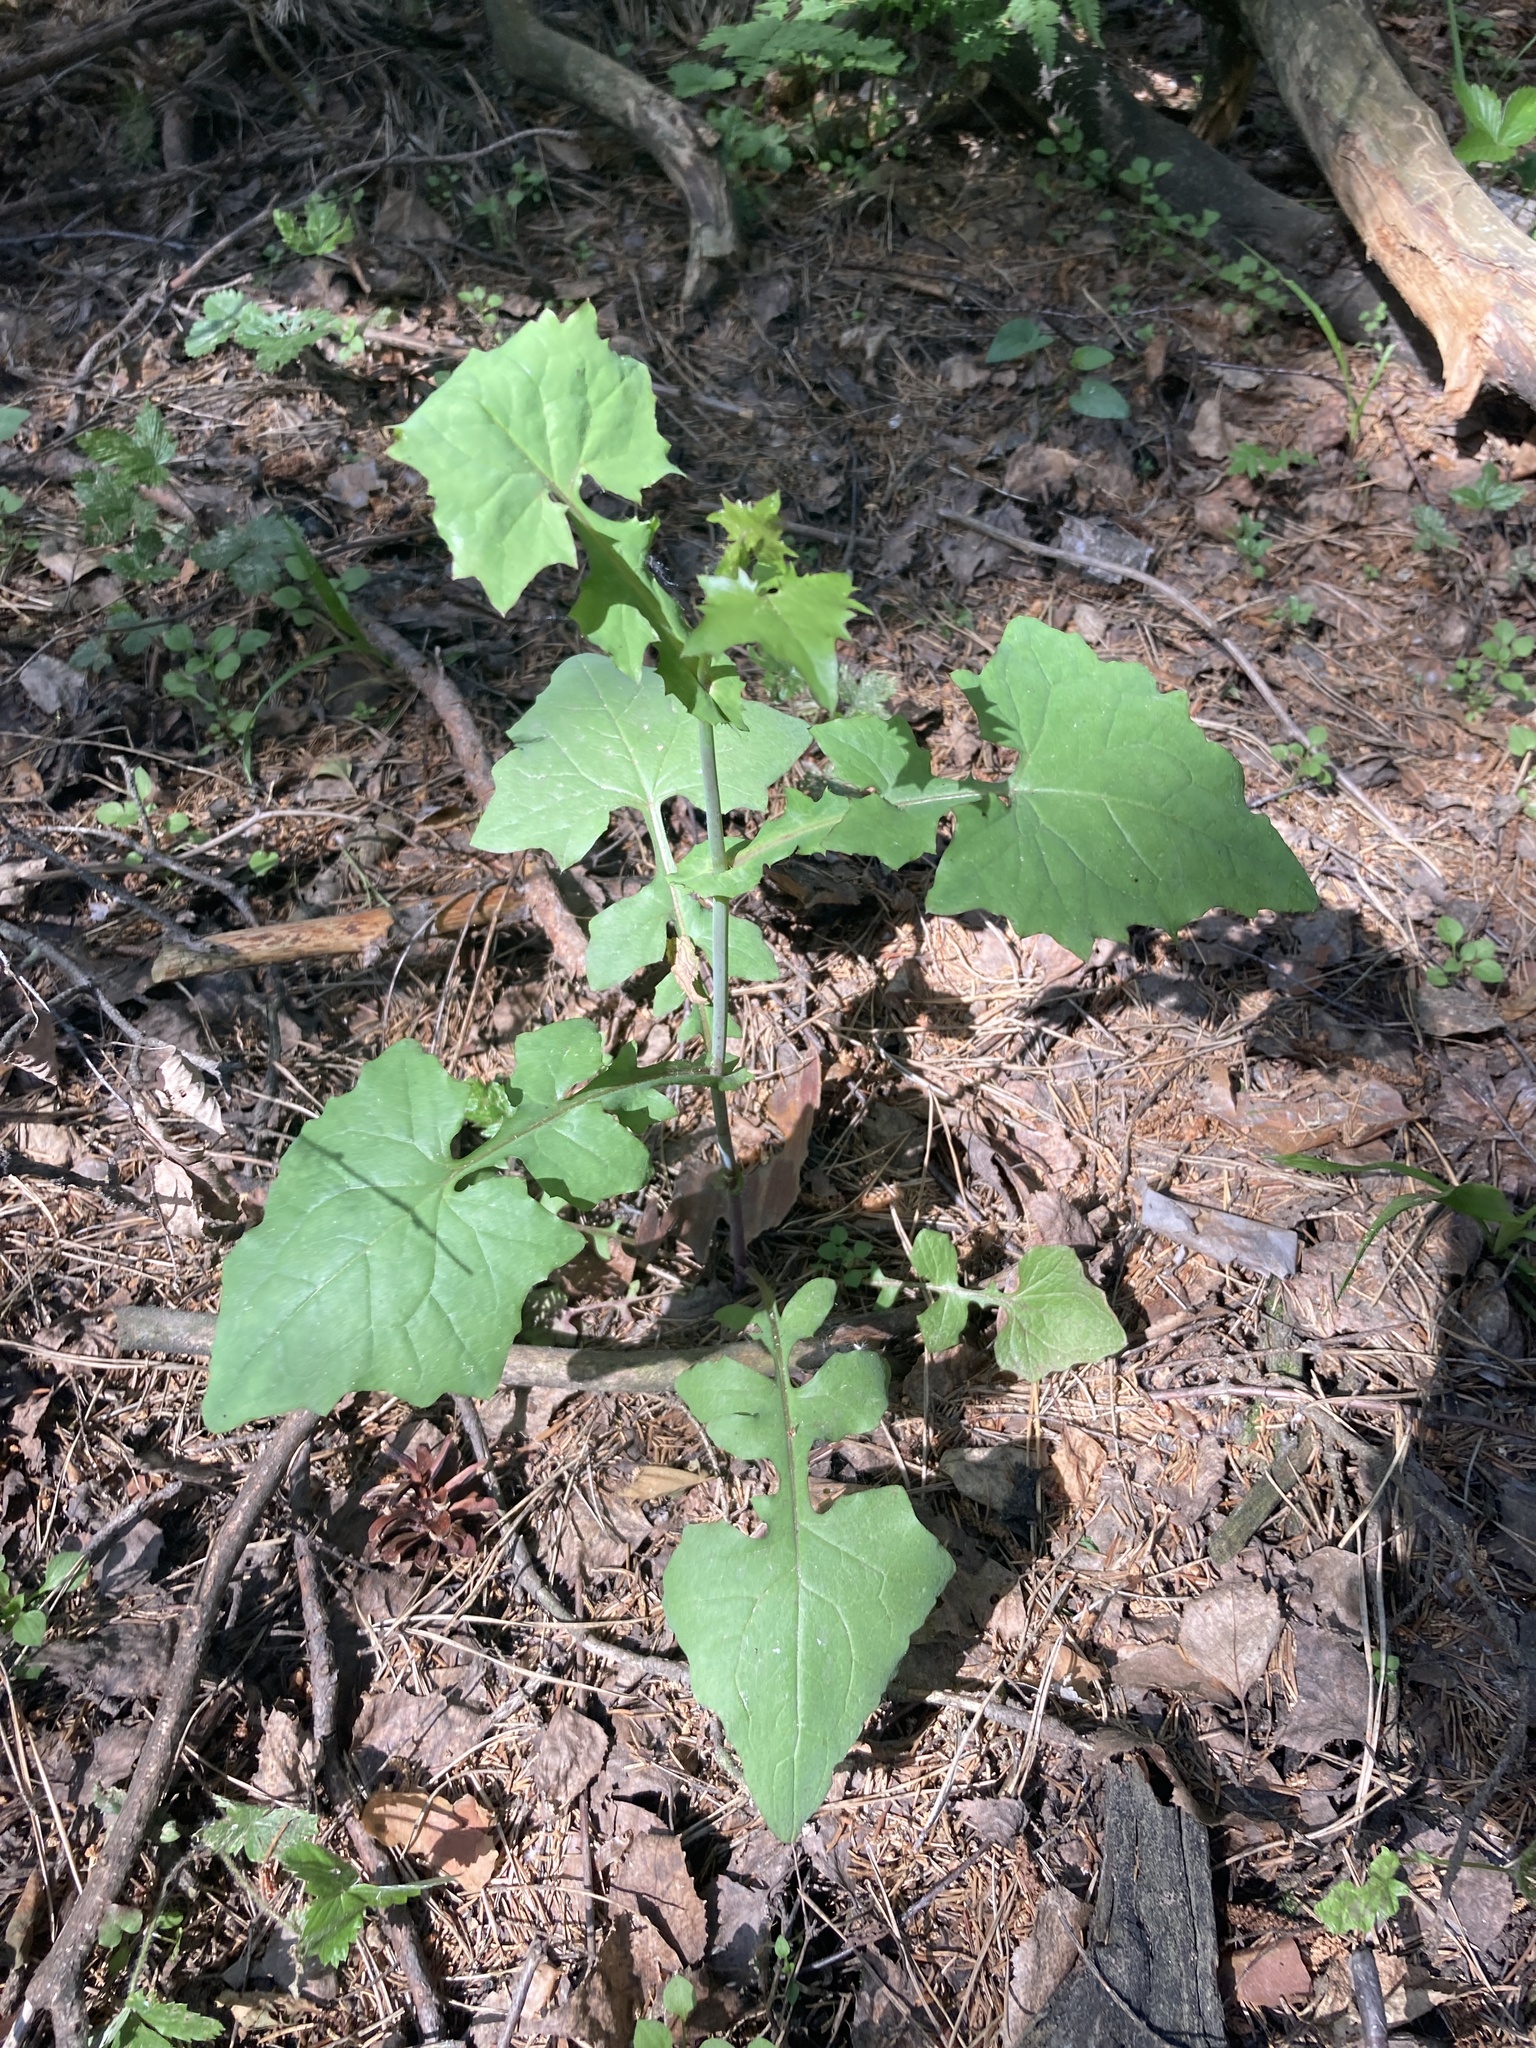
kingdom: Plantae
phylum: Tracheophyta
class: Magnoliopsida
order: Asterales
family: Asteraceae
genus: Mycelis
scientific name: Mycelis muralis
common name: Wall lettuce
